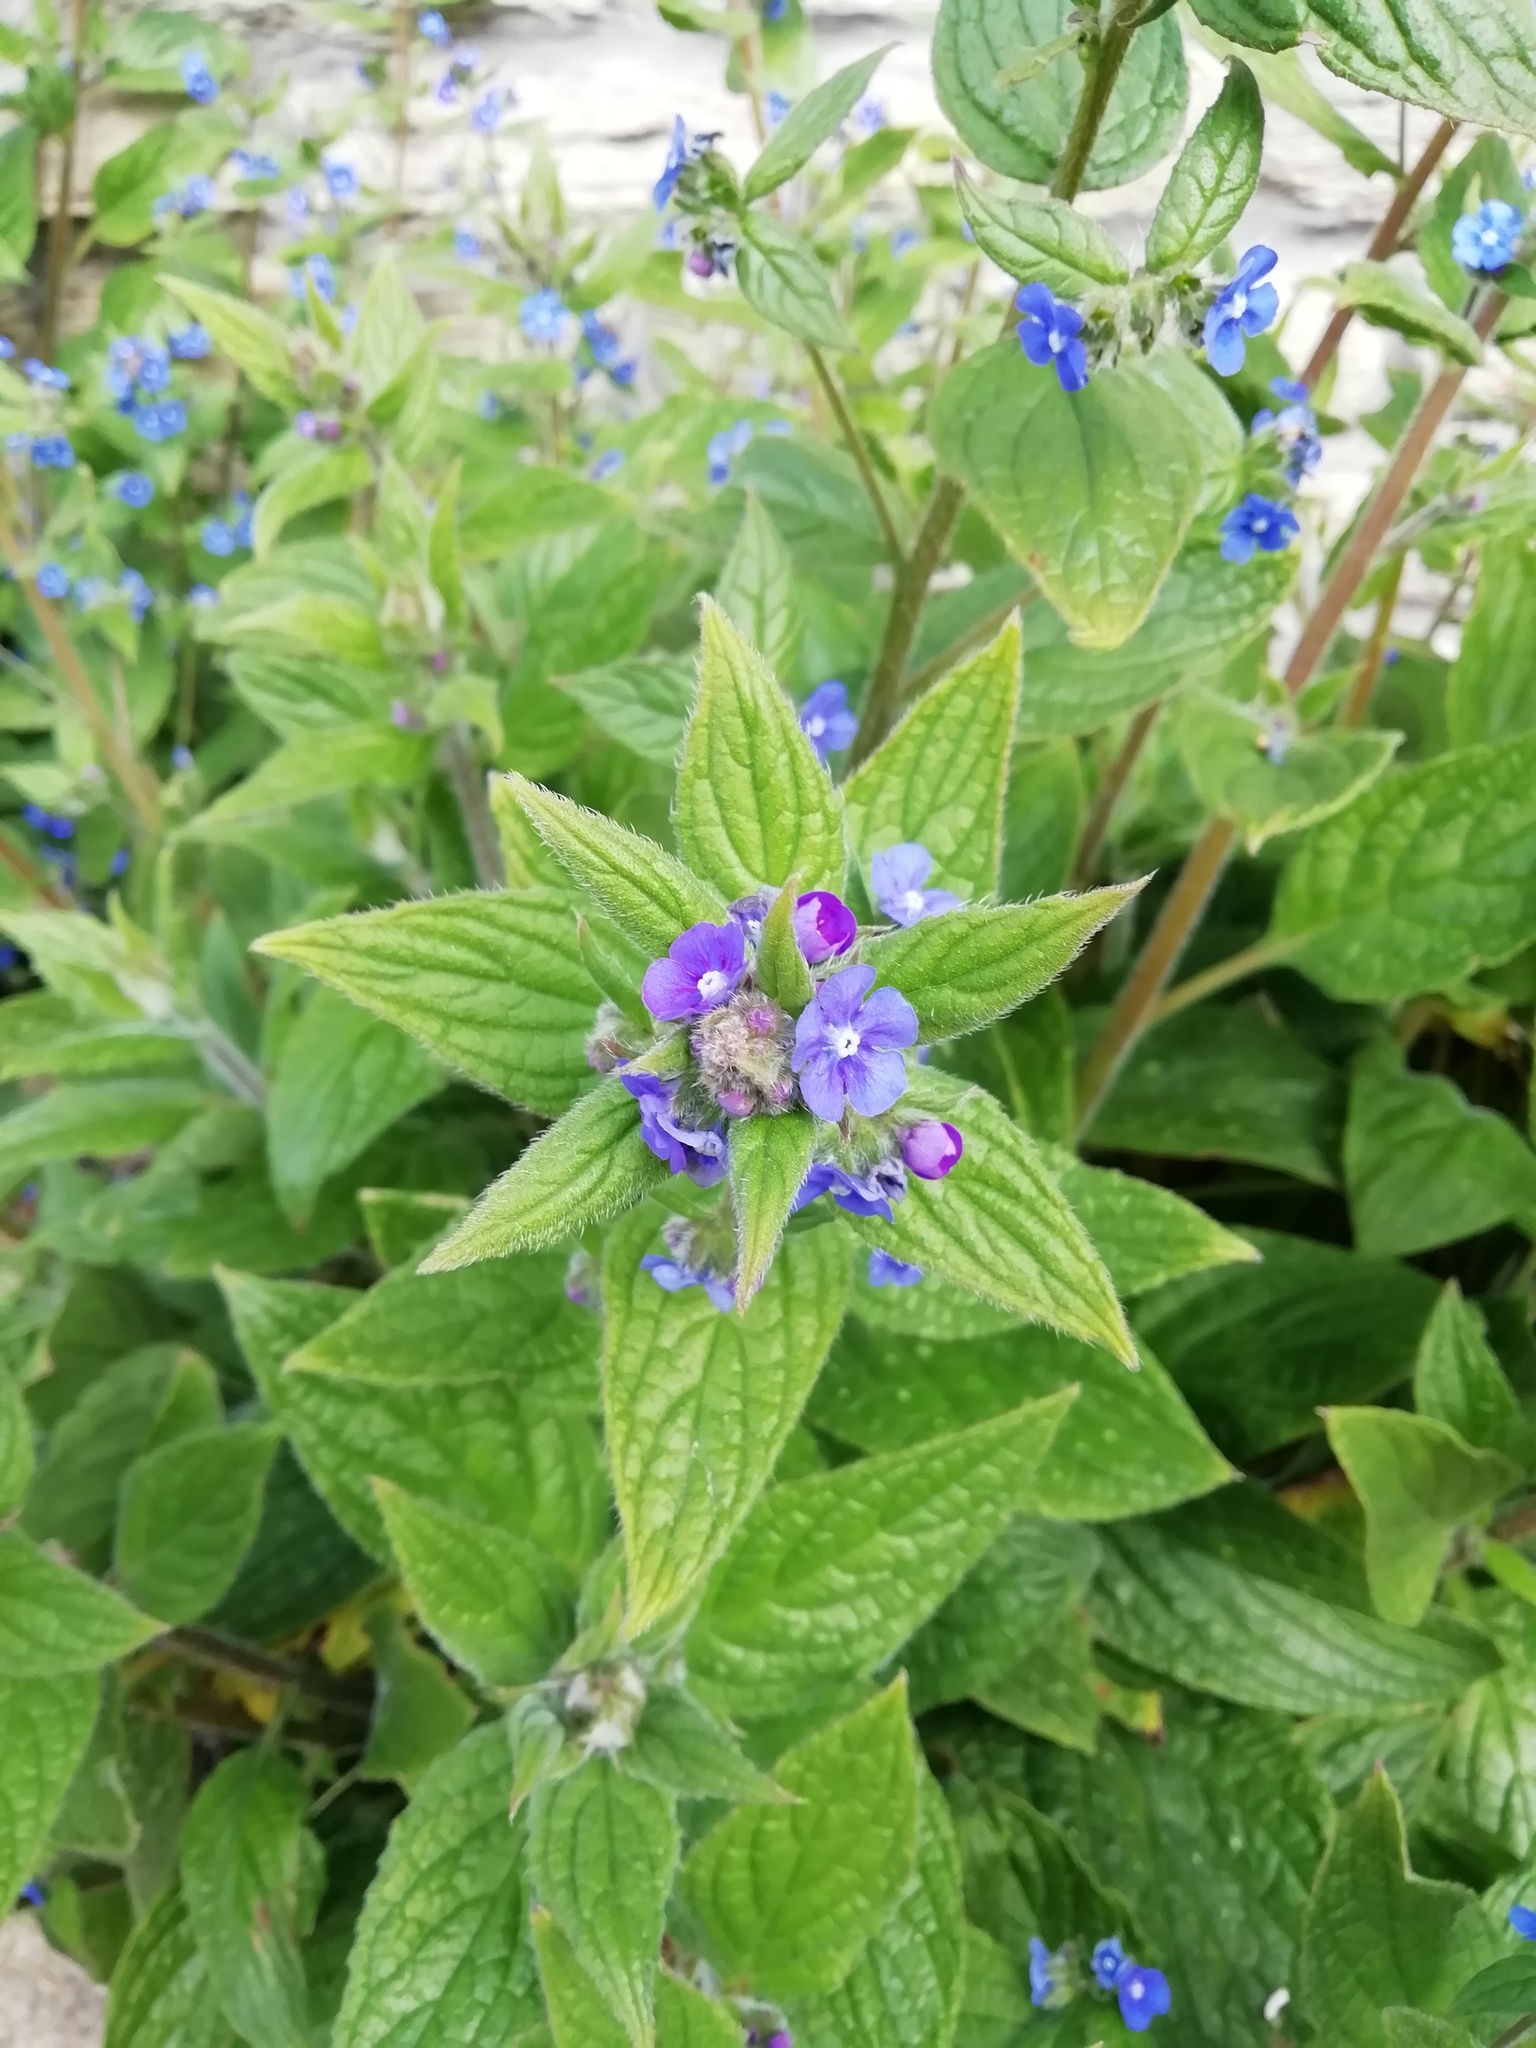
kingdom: Plantae
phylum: Tracheophyta
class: Magnoliopsida
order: Boraginales
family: Boraginaceae
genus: Pentaglottis
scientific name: Pentaglottis sempervirens
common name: Green alkanet
